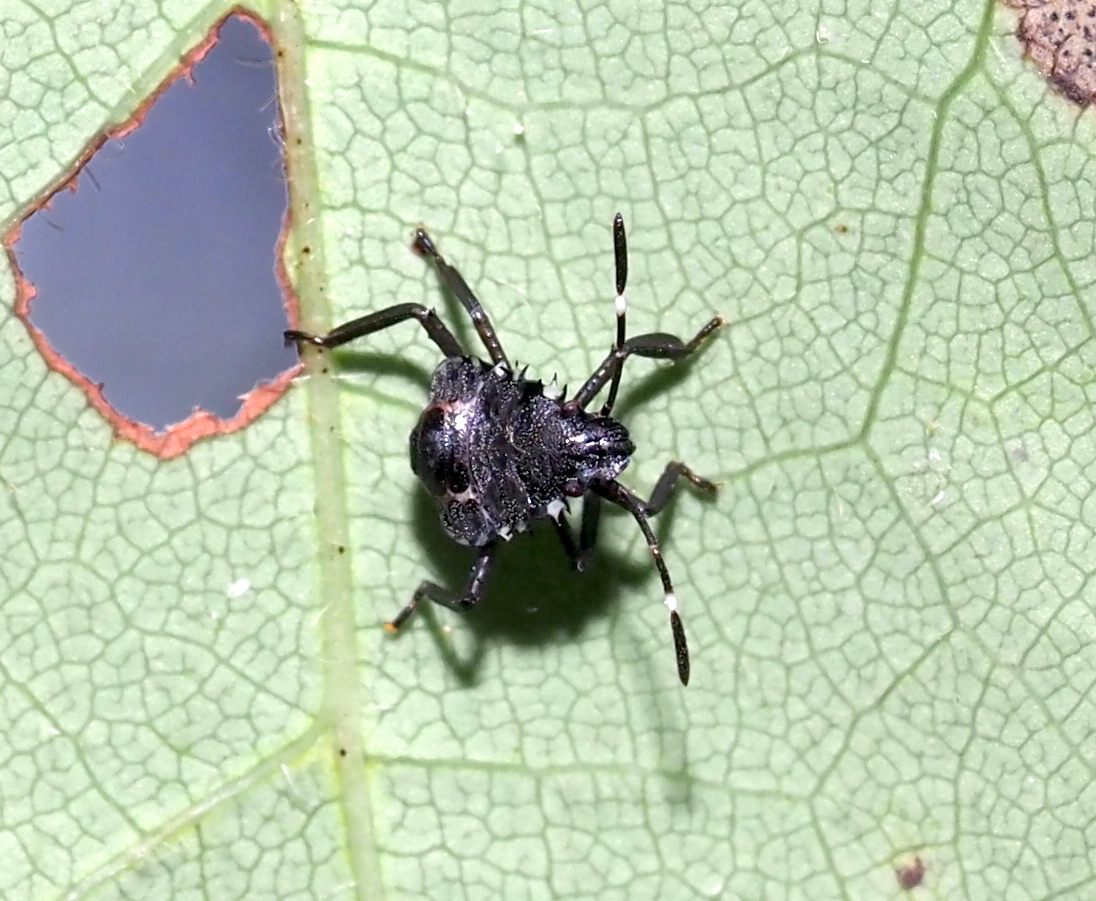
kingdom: Animalia
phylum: Arthropoda
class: Insecta
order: Hemiptera
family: Pentatomidae
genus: Halyomorpha
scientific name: Halyomorpha halys
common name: Brown marmorated stink bug
